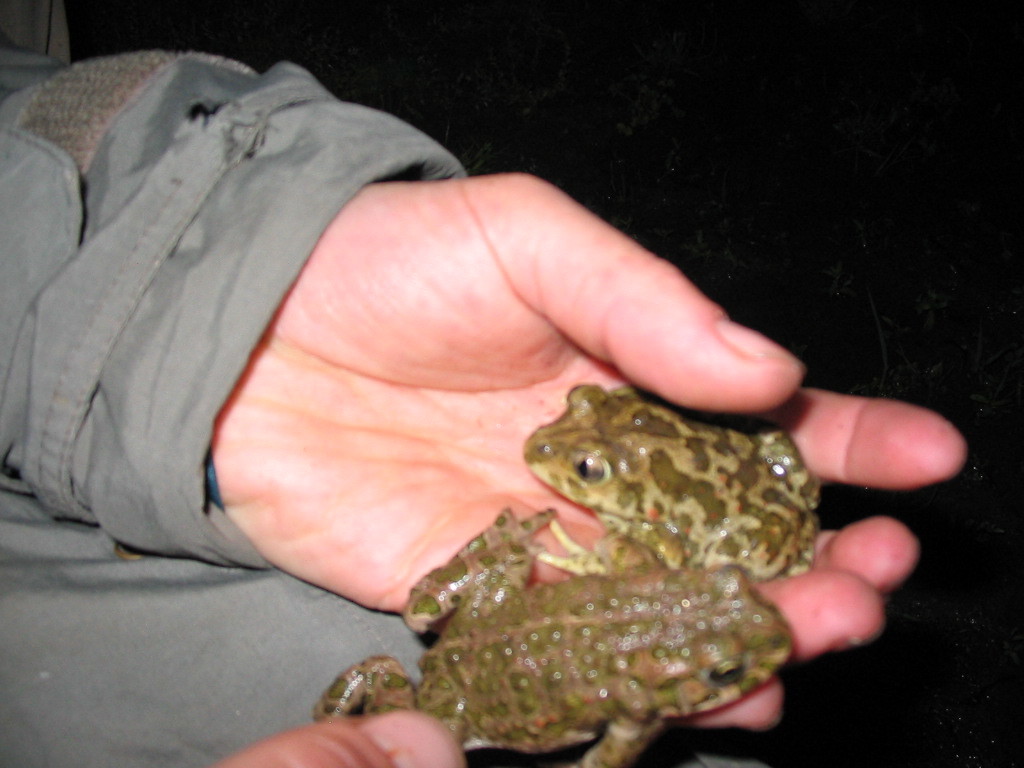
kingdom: Animalia
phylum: Chordata
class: Amphibia
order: Anura
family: Bufonidae
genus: Bufotes
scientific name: Bufotes viridis
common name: European green toad
